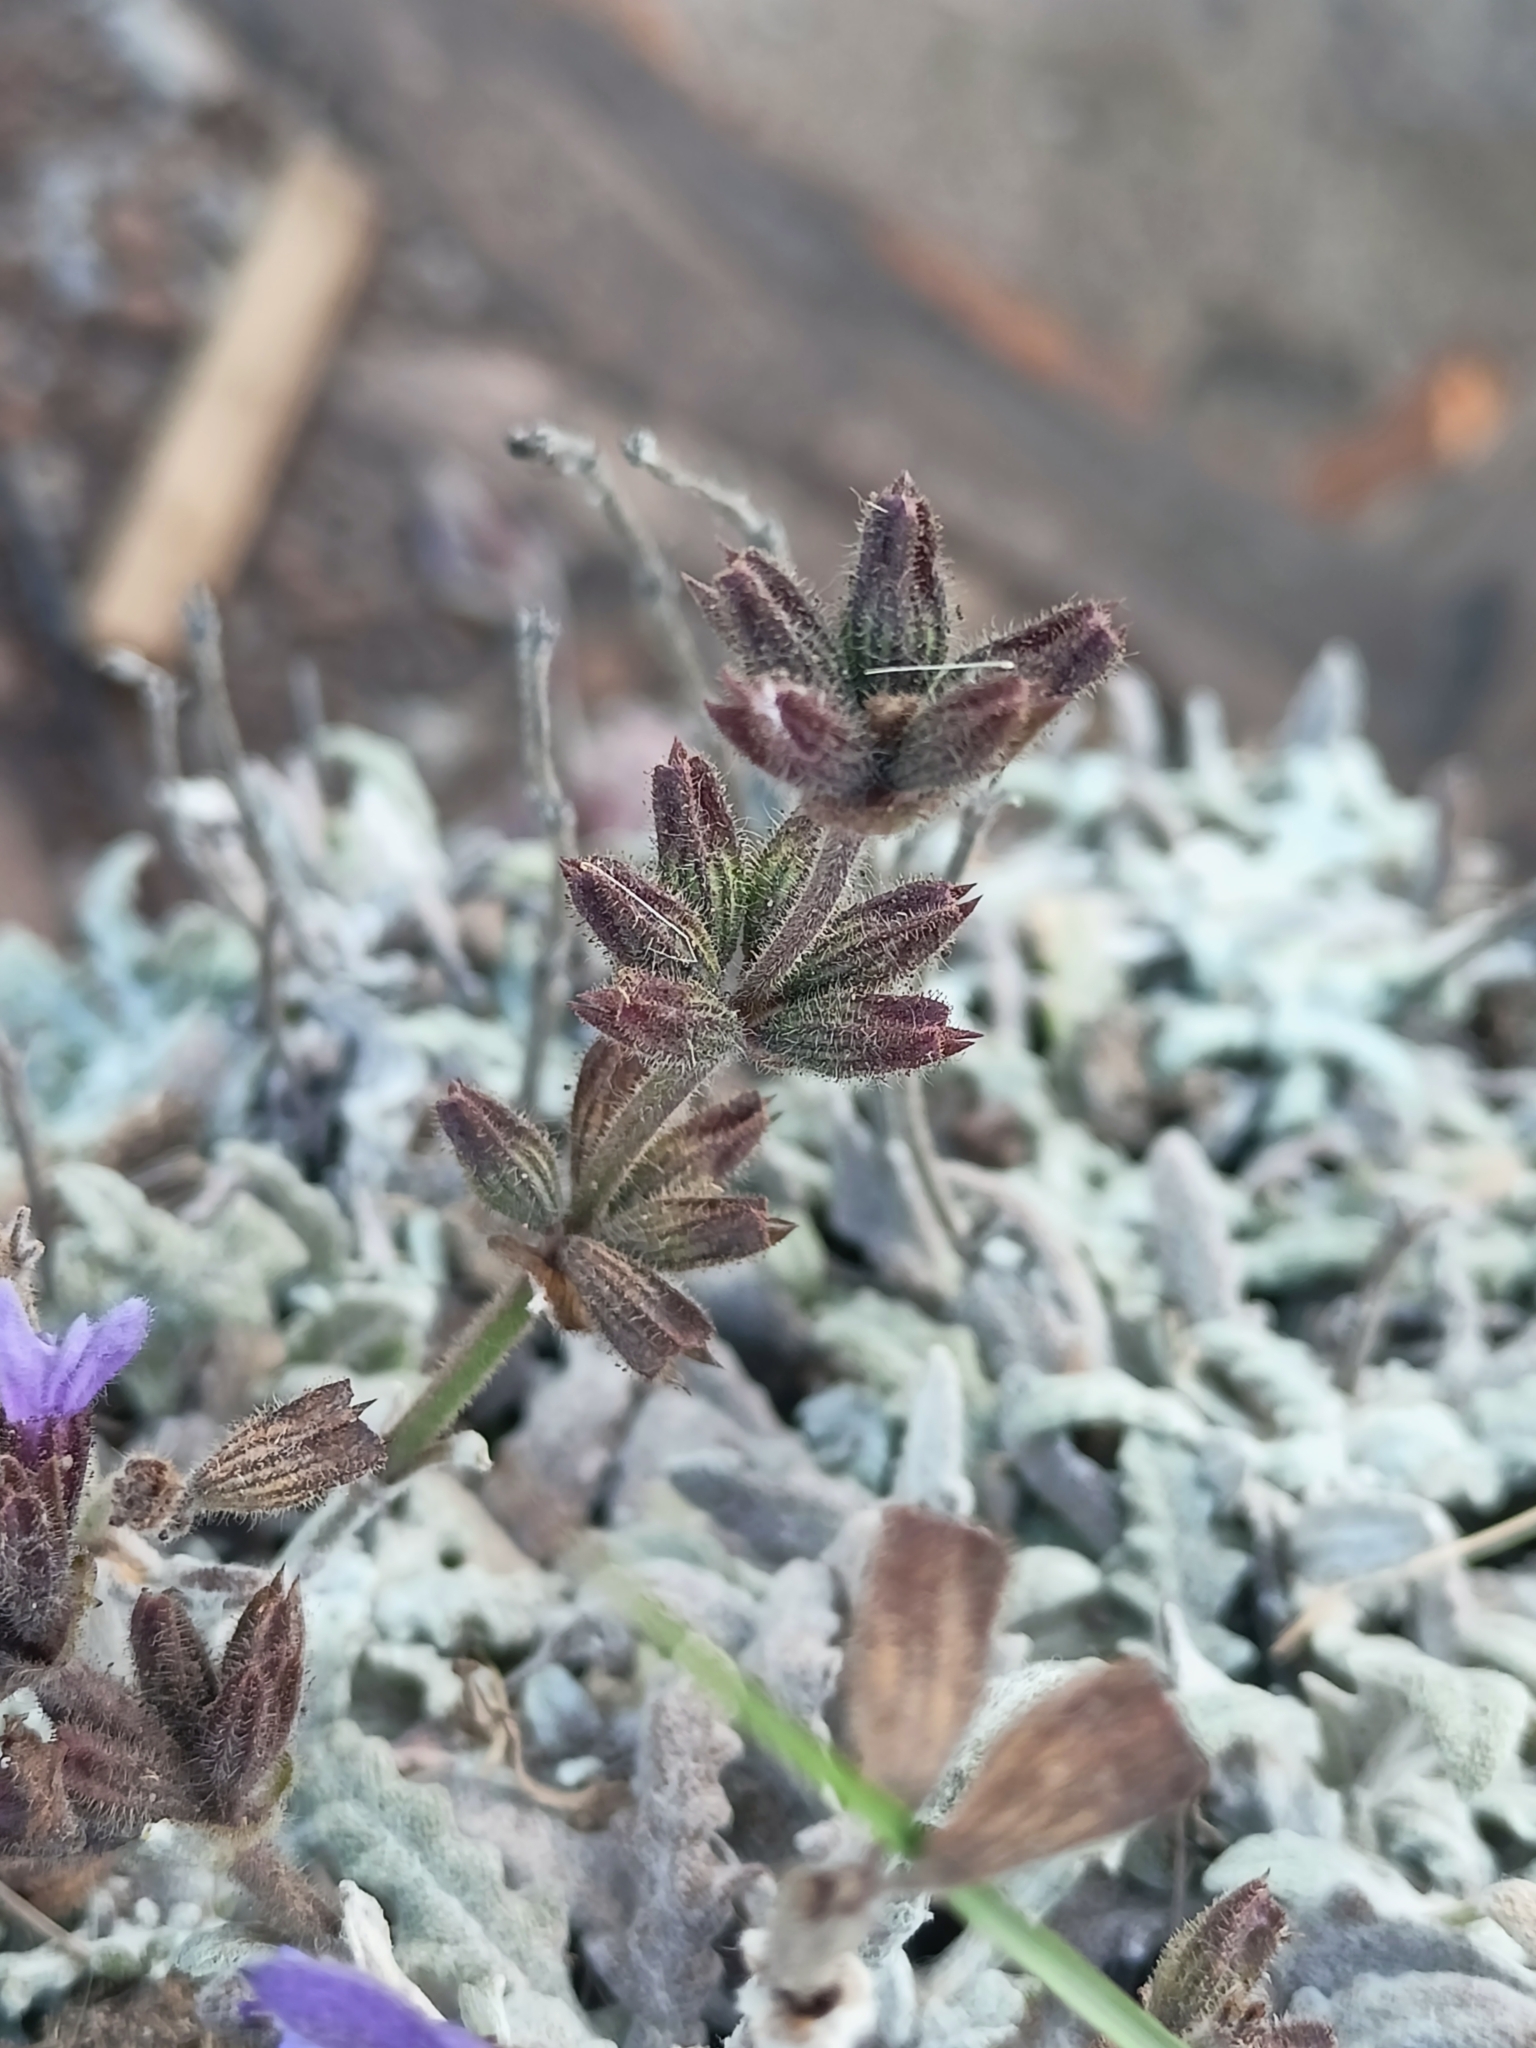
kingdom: Plantae
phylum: Tracheophyta
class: Magnoliopsida
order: Lamiales
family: Lamiaceae
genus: Salvia
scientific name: Salvia canescens
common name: Hoary salvia
